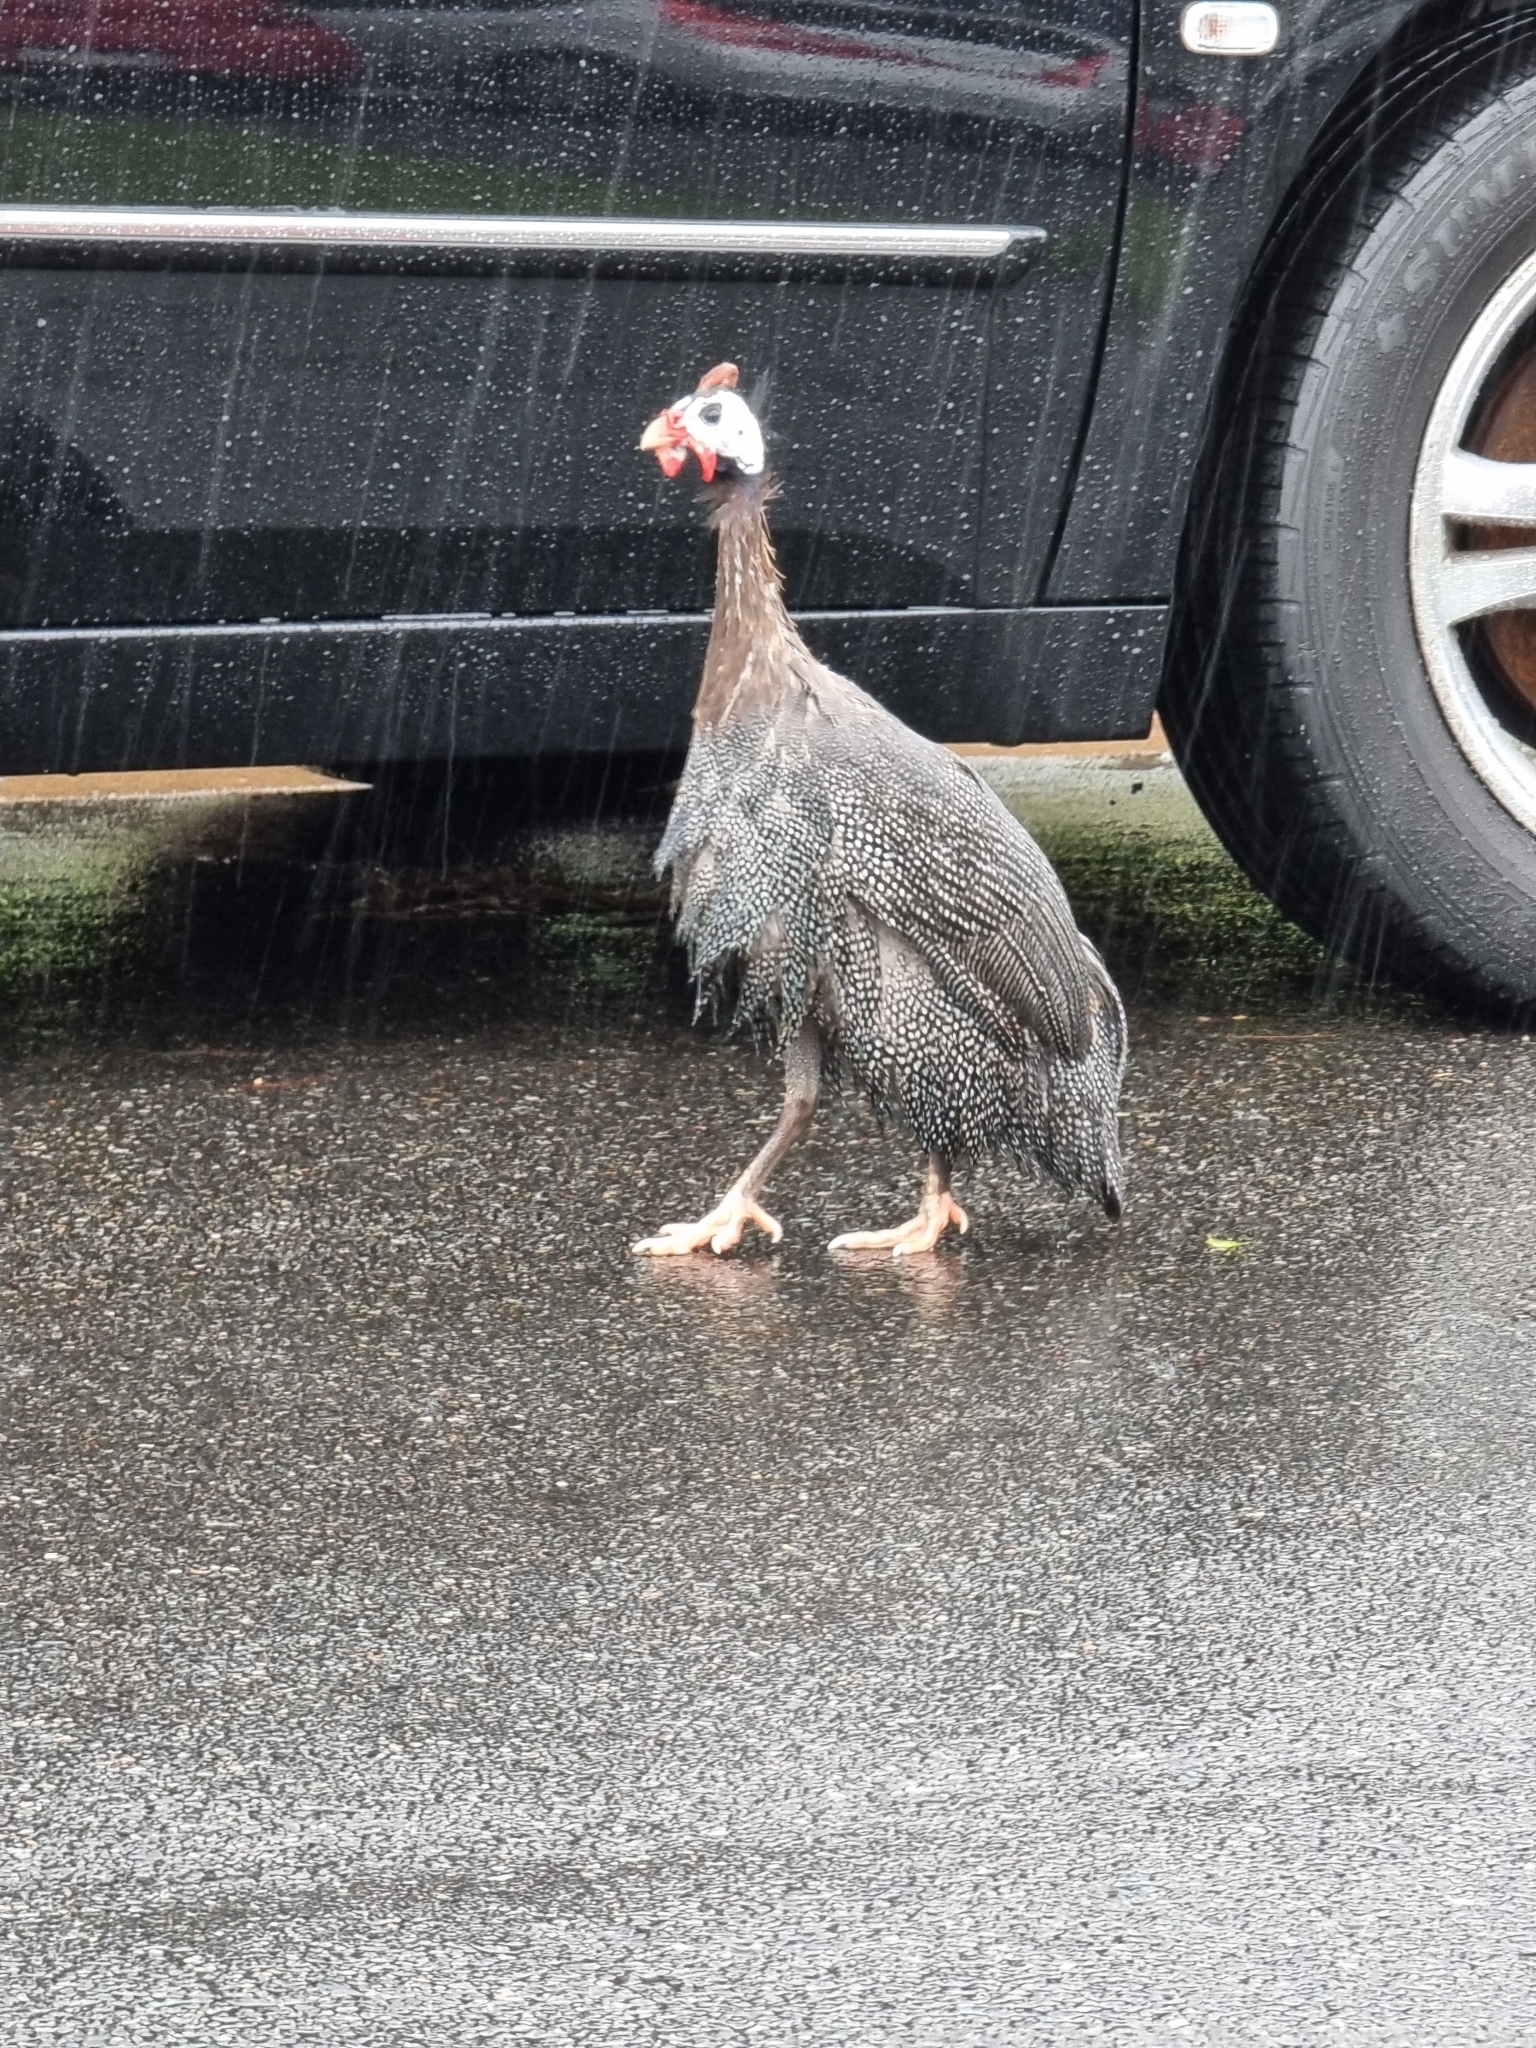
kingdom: Animalia
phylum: Chordata
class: Aves
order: Galliformes
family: Numididae
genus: Numida
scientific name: Numida meleagris
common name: Helmeted guineafowl
